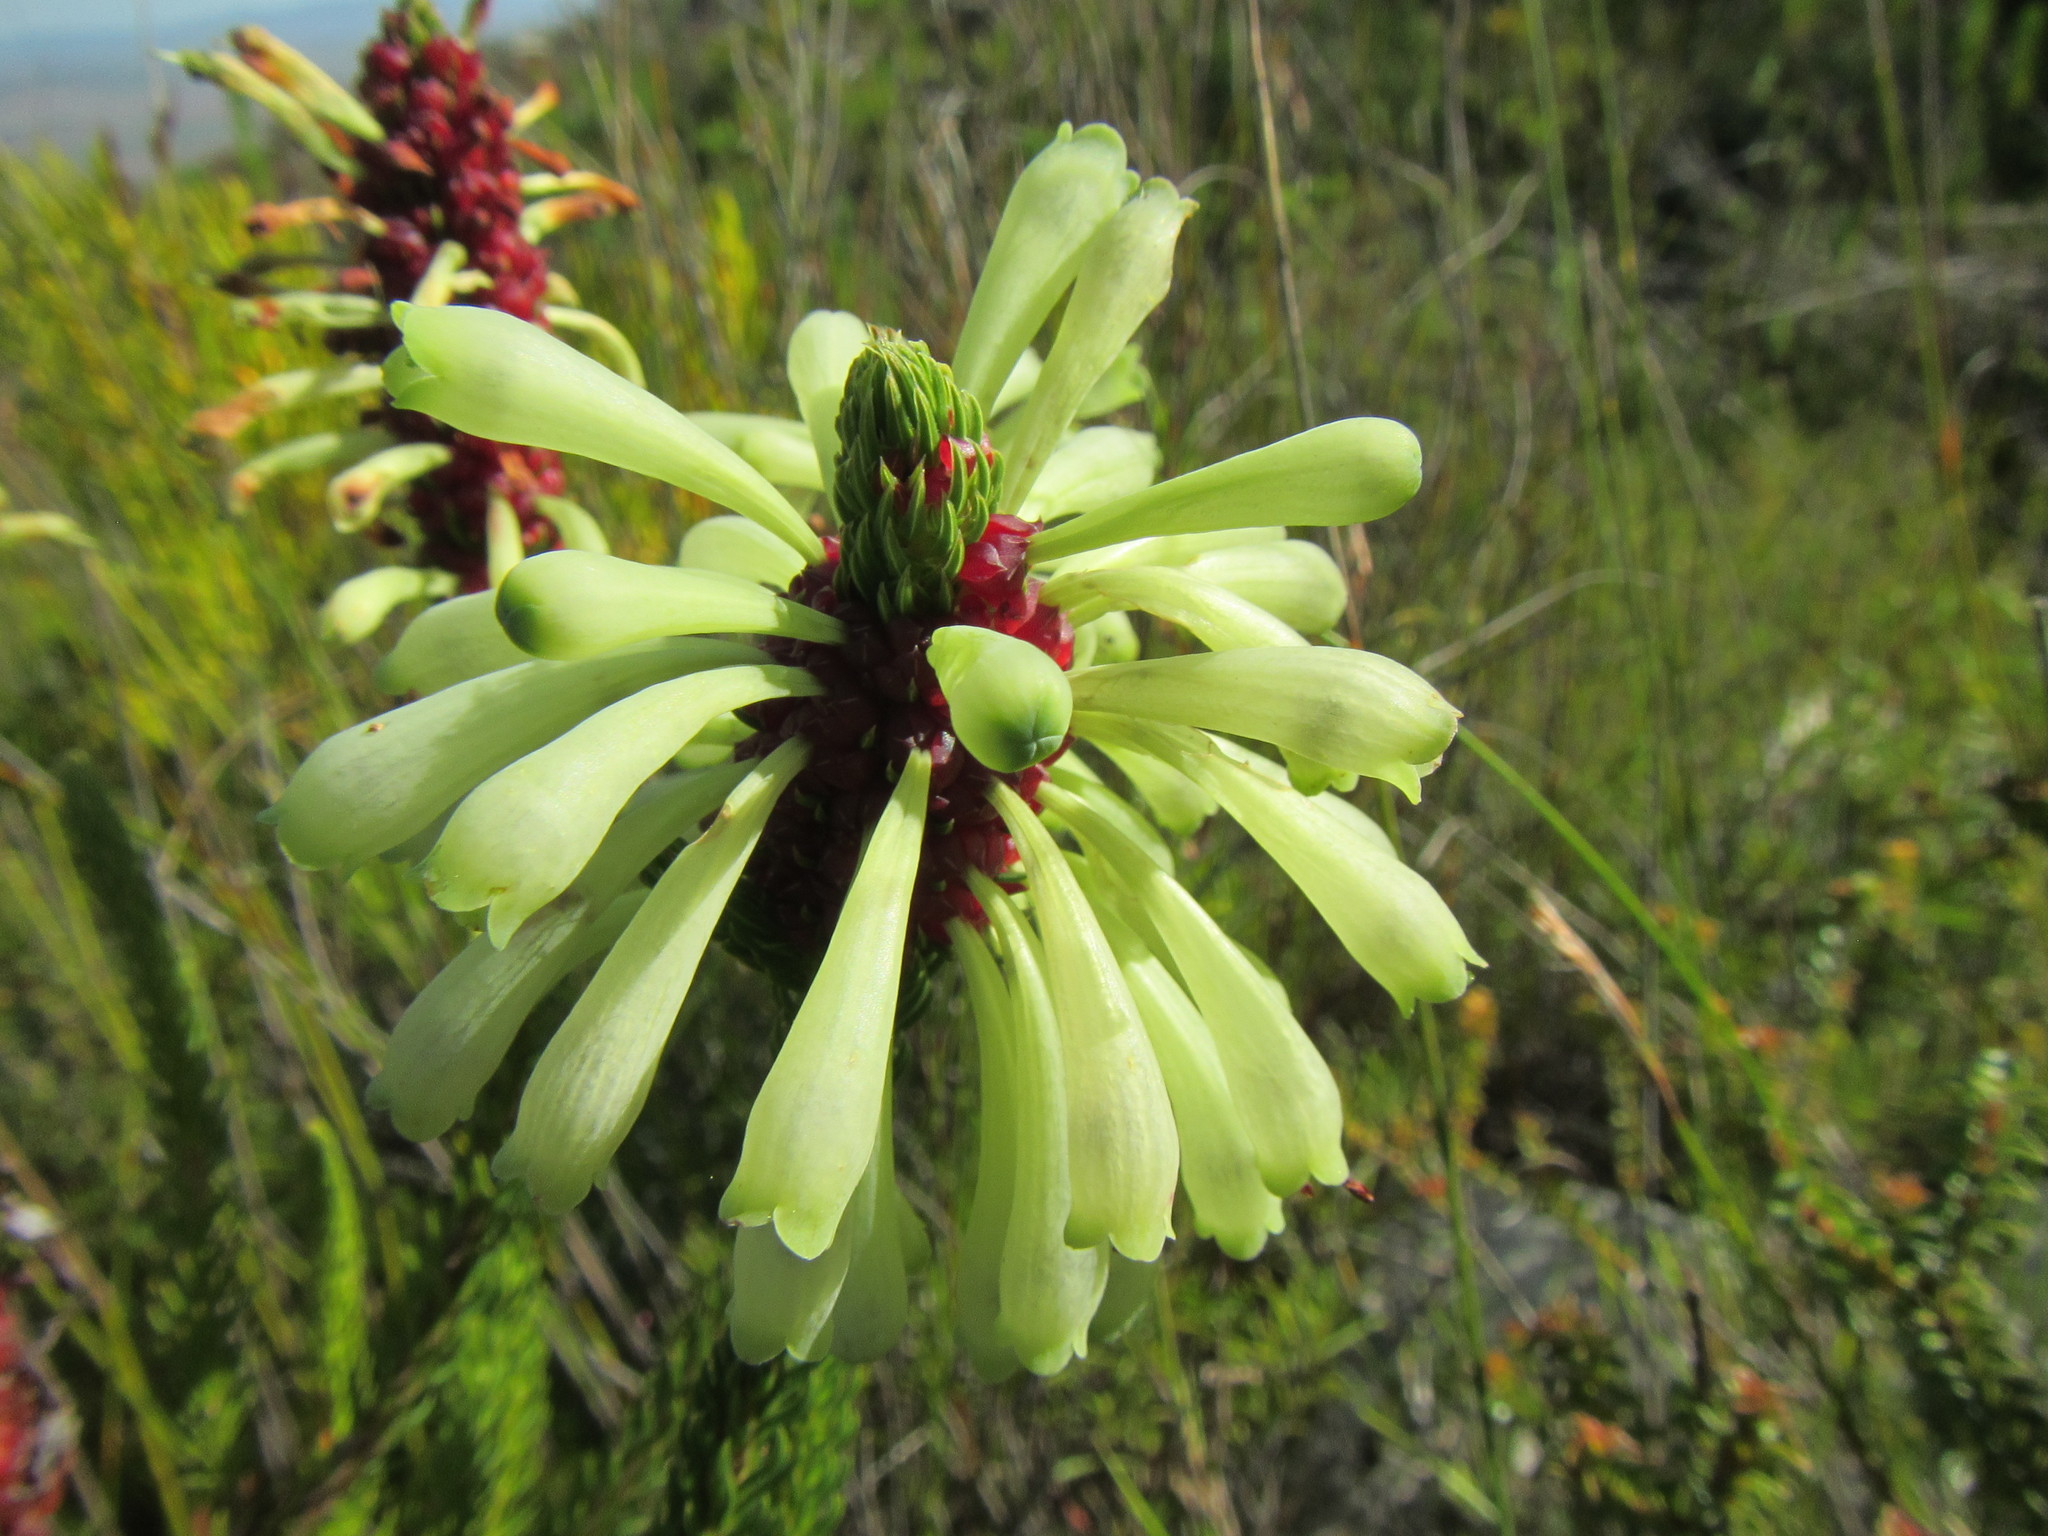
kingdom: Plantae
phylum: Tracheophyta
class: Magnoliopsida
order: Ericales
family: Ericaceae
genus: Erica
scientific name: Erica sessiliflora
